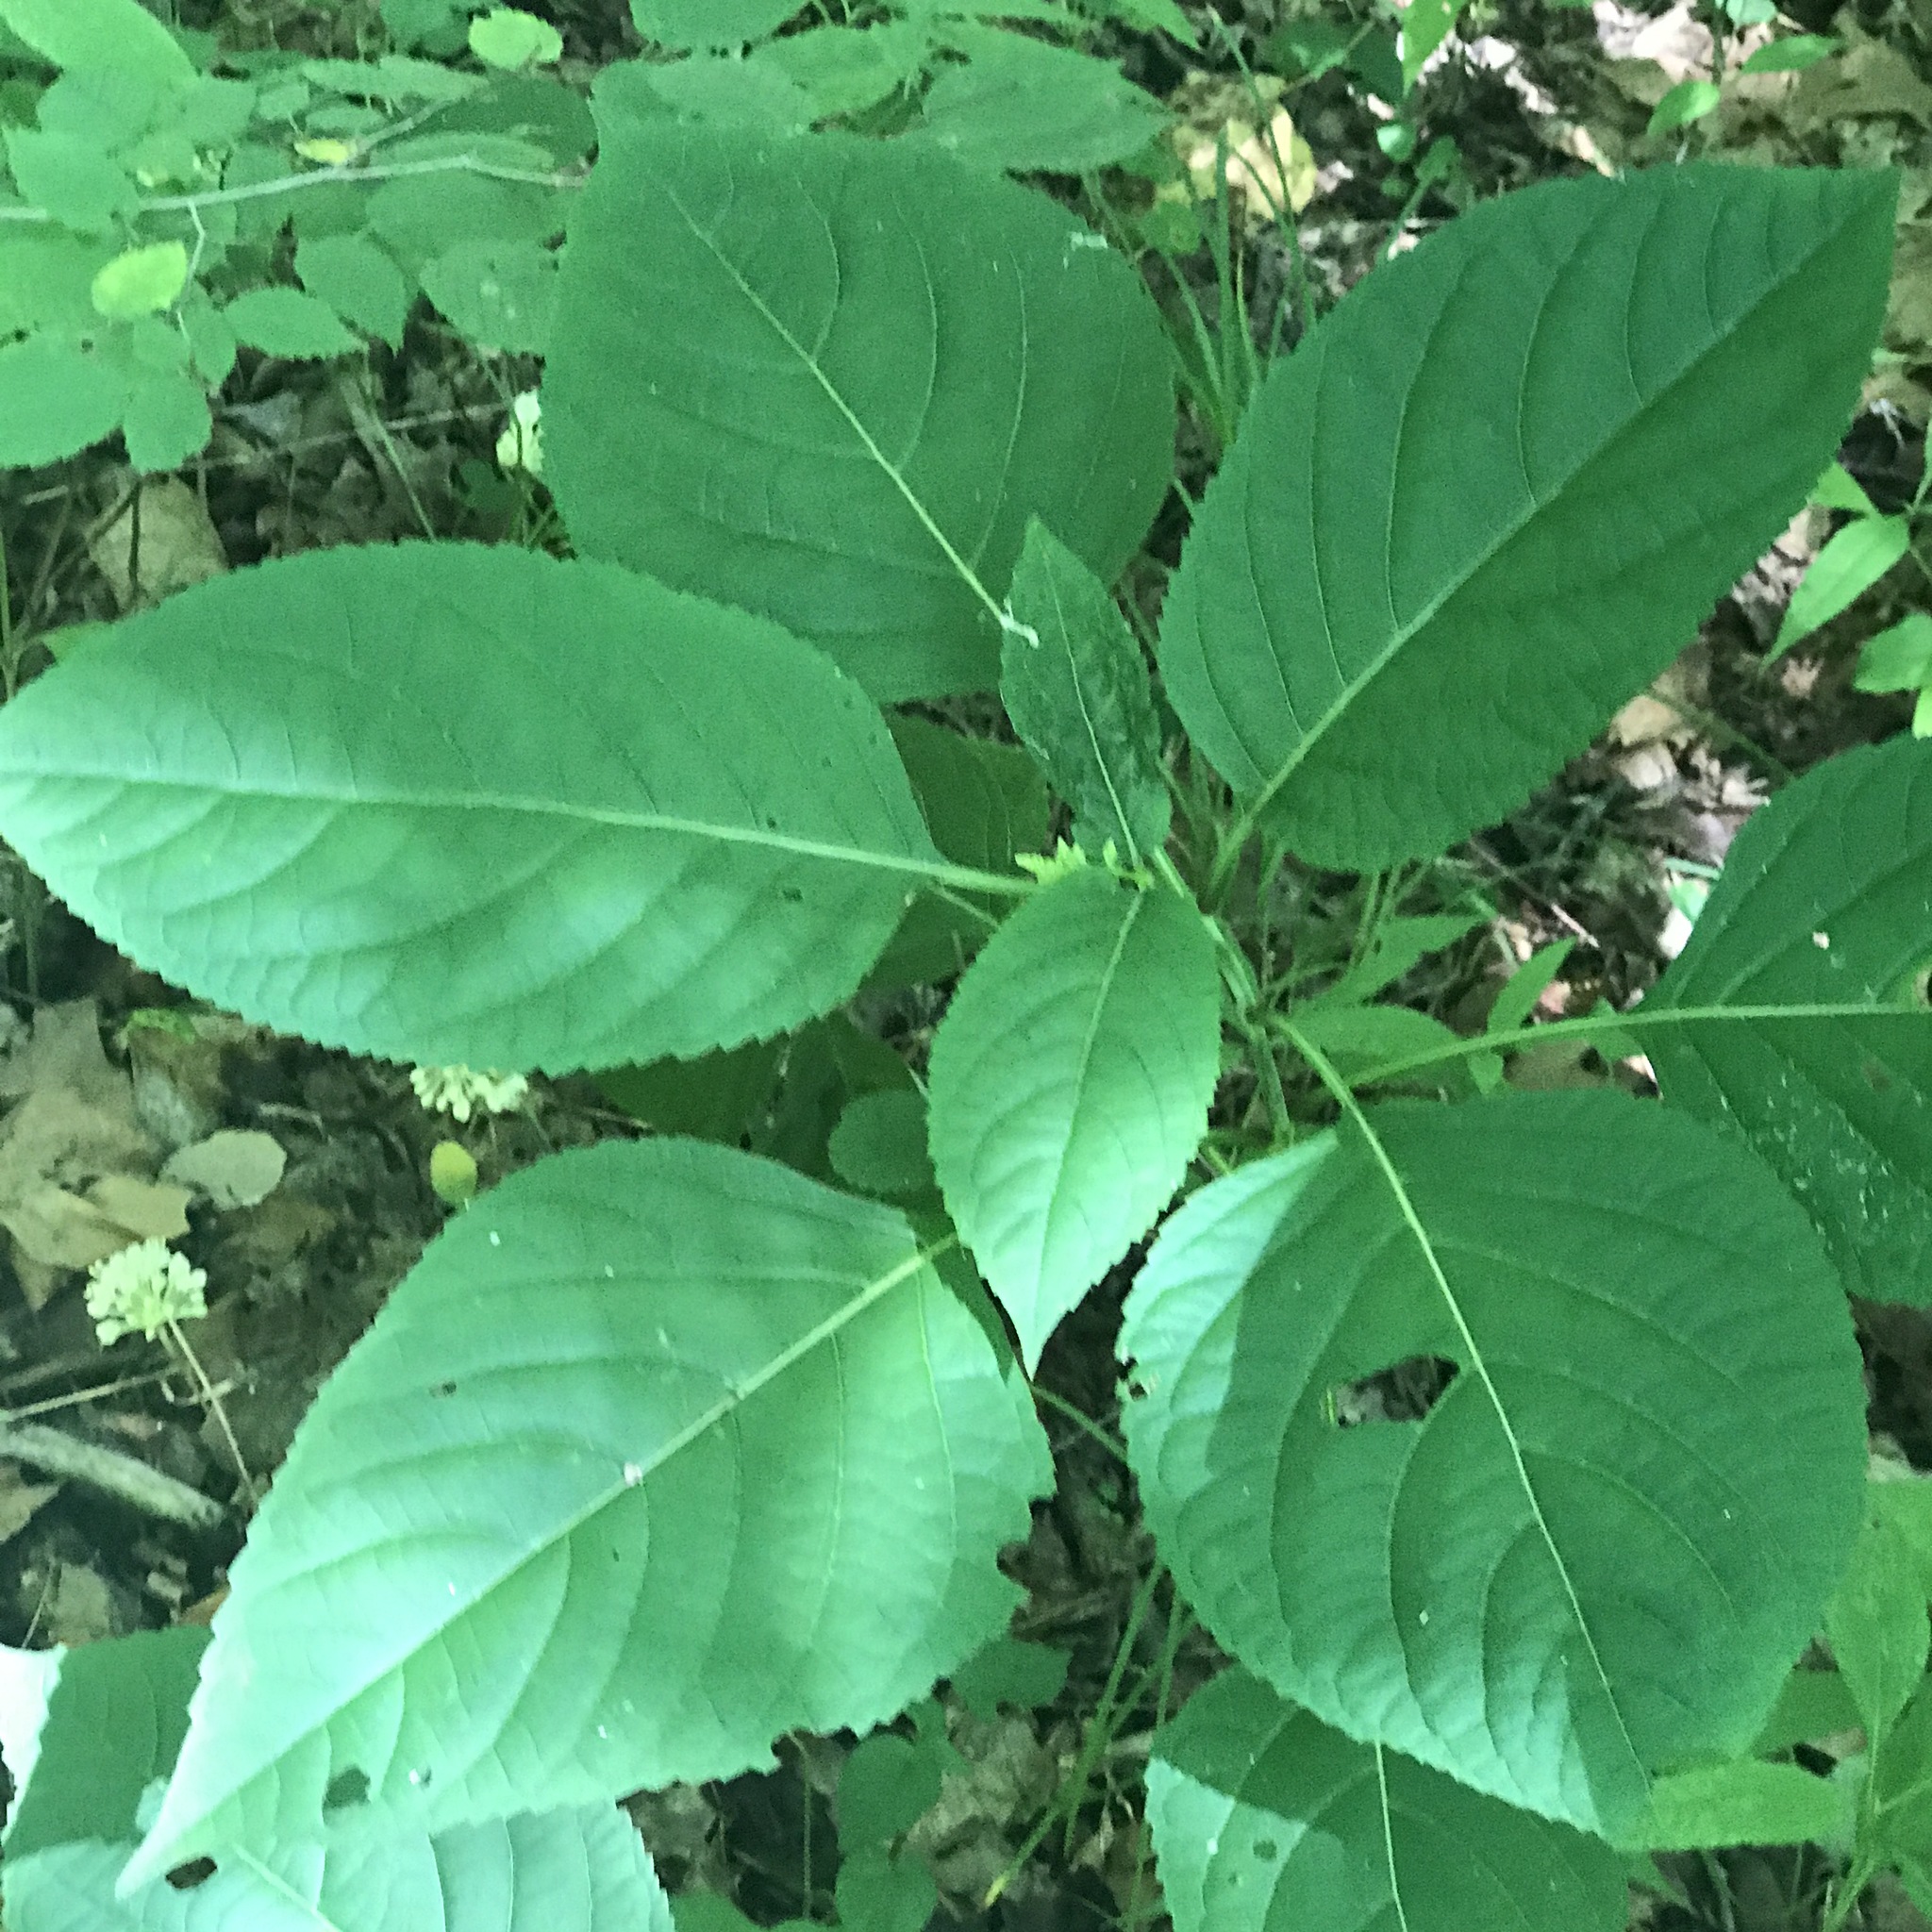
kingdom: Plantae
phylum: Tracheophyta
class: Magnoliopsida
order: Lamiales
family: Lamiaceae
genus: Collinsonia
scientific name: Collinsonia canadensis
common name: Northern horsebalm
